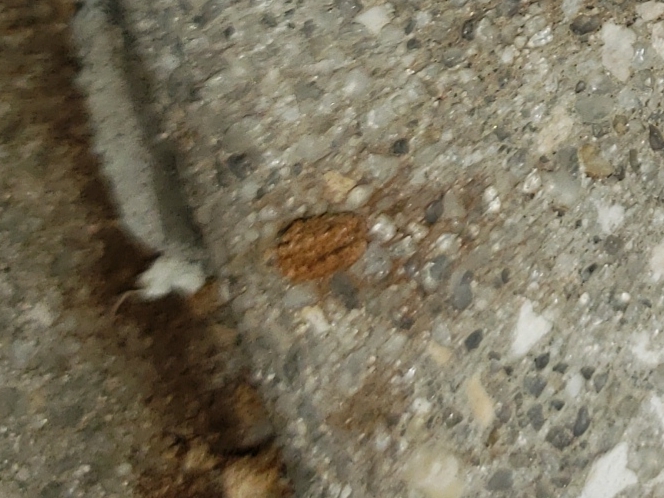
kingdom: Animalia
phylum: Arthropoda
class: Insecta
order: Lepidoptera
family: Saturniidae
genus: Anisota
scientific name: Anisota virginiensis
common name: Pink striped oakworm moth
